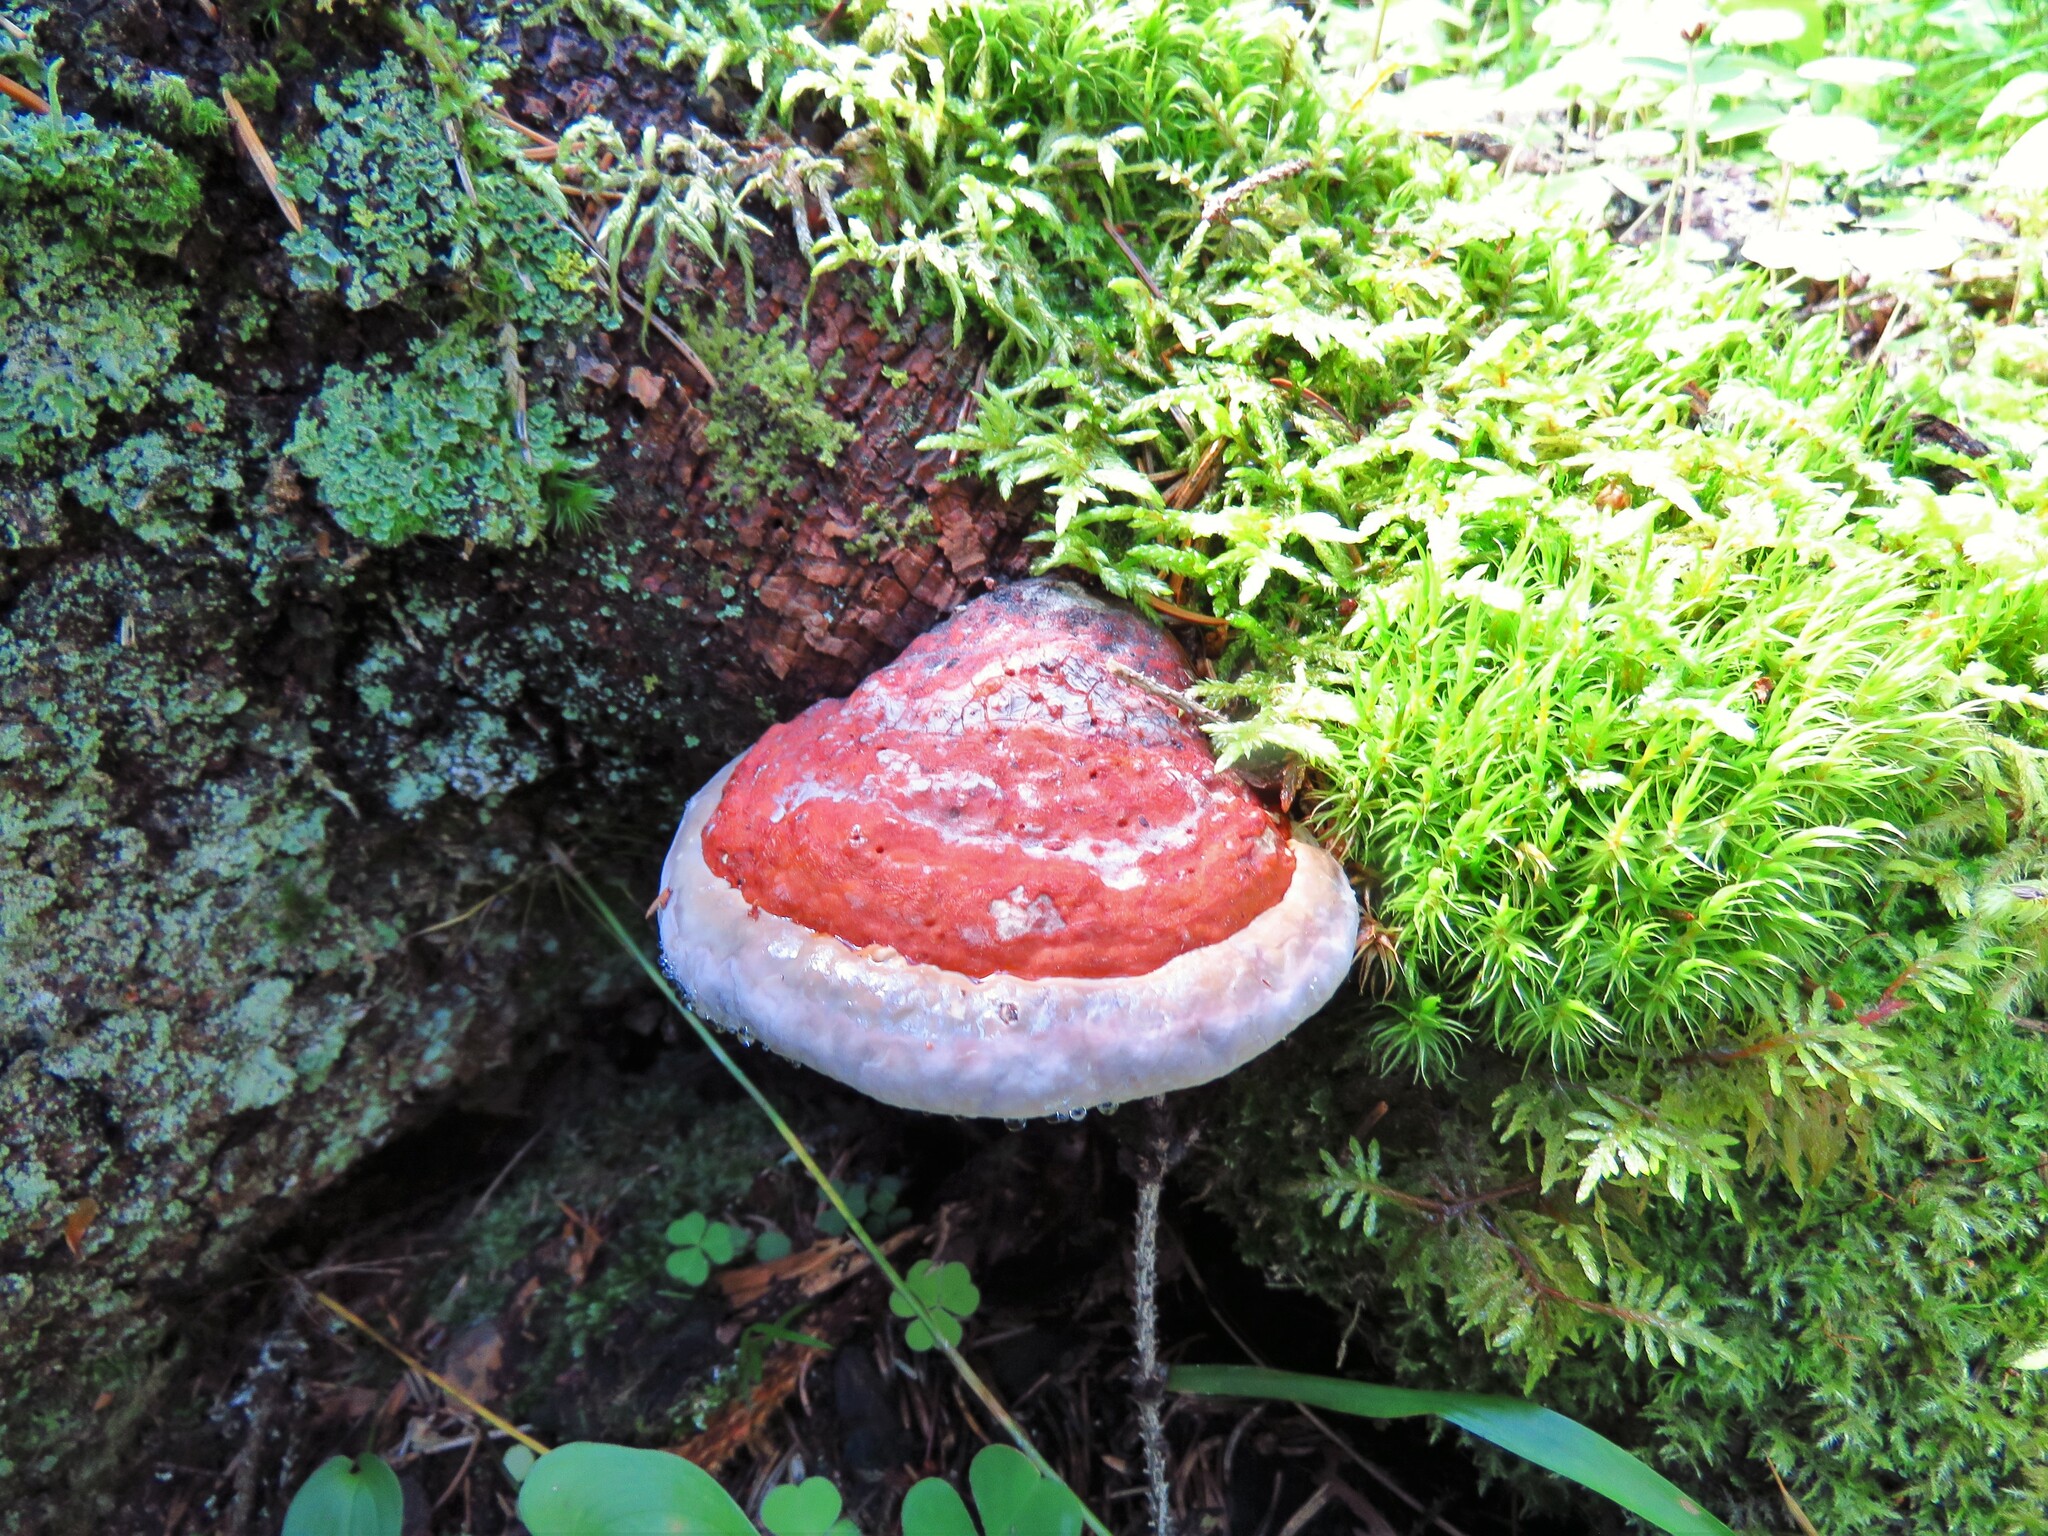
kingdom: Fungi
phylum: Basidiomycota
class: Agaricomycetes
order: Polyporales
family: Fomitopsidaceae
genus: Fomitopsis
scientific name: Fomitopsis pinicola
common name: Red-belted bracket
